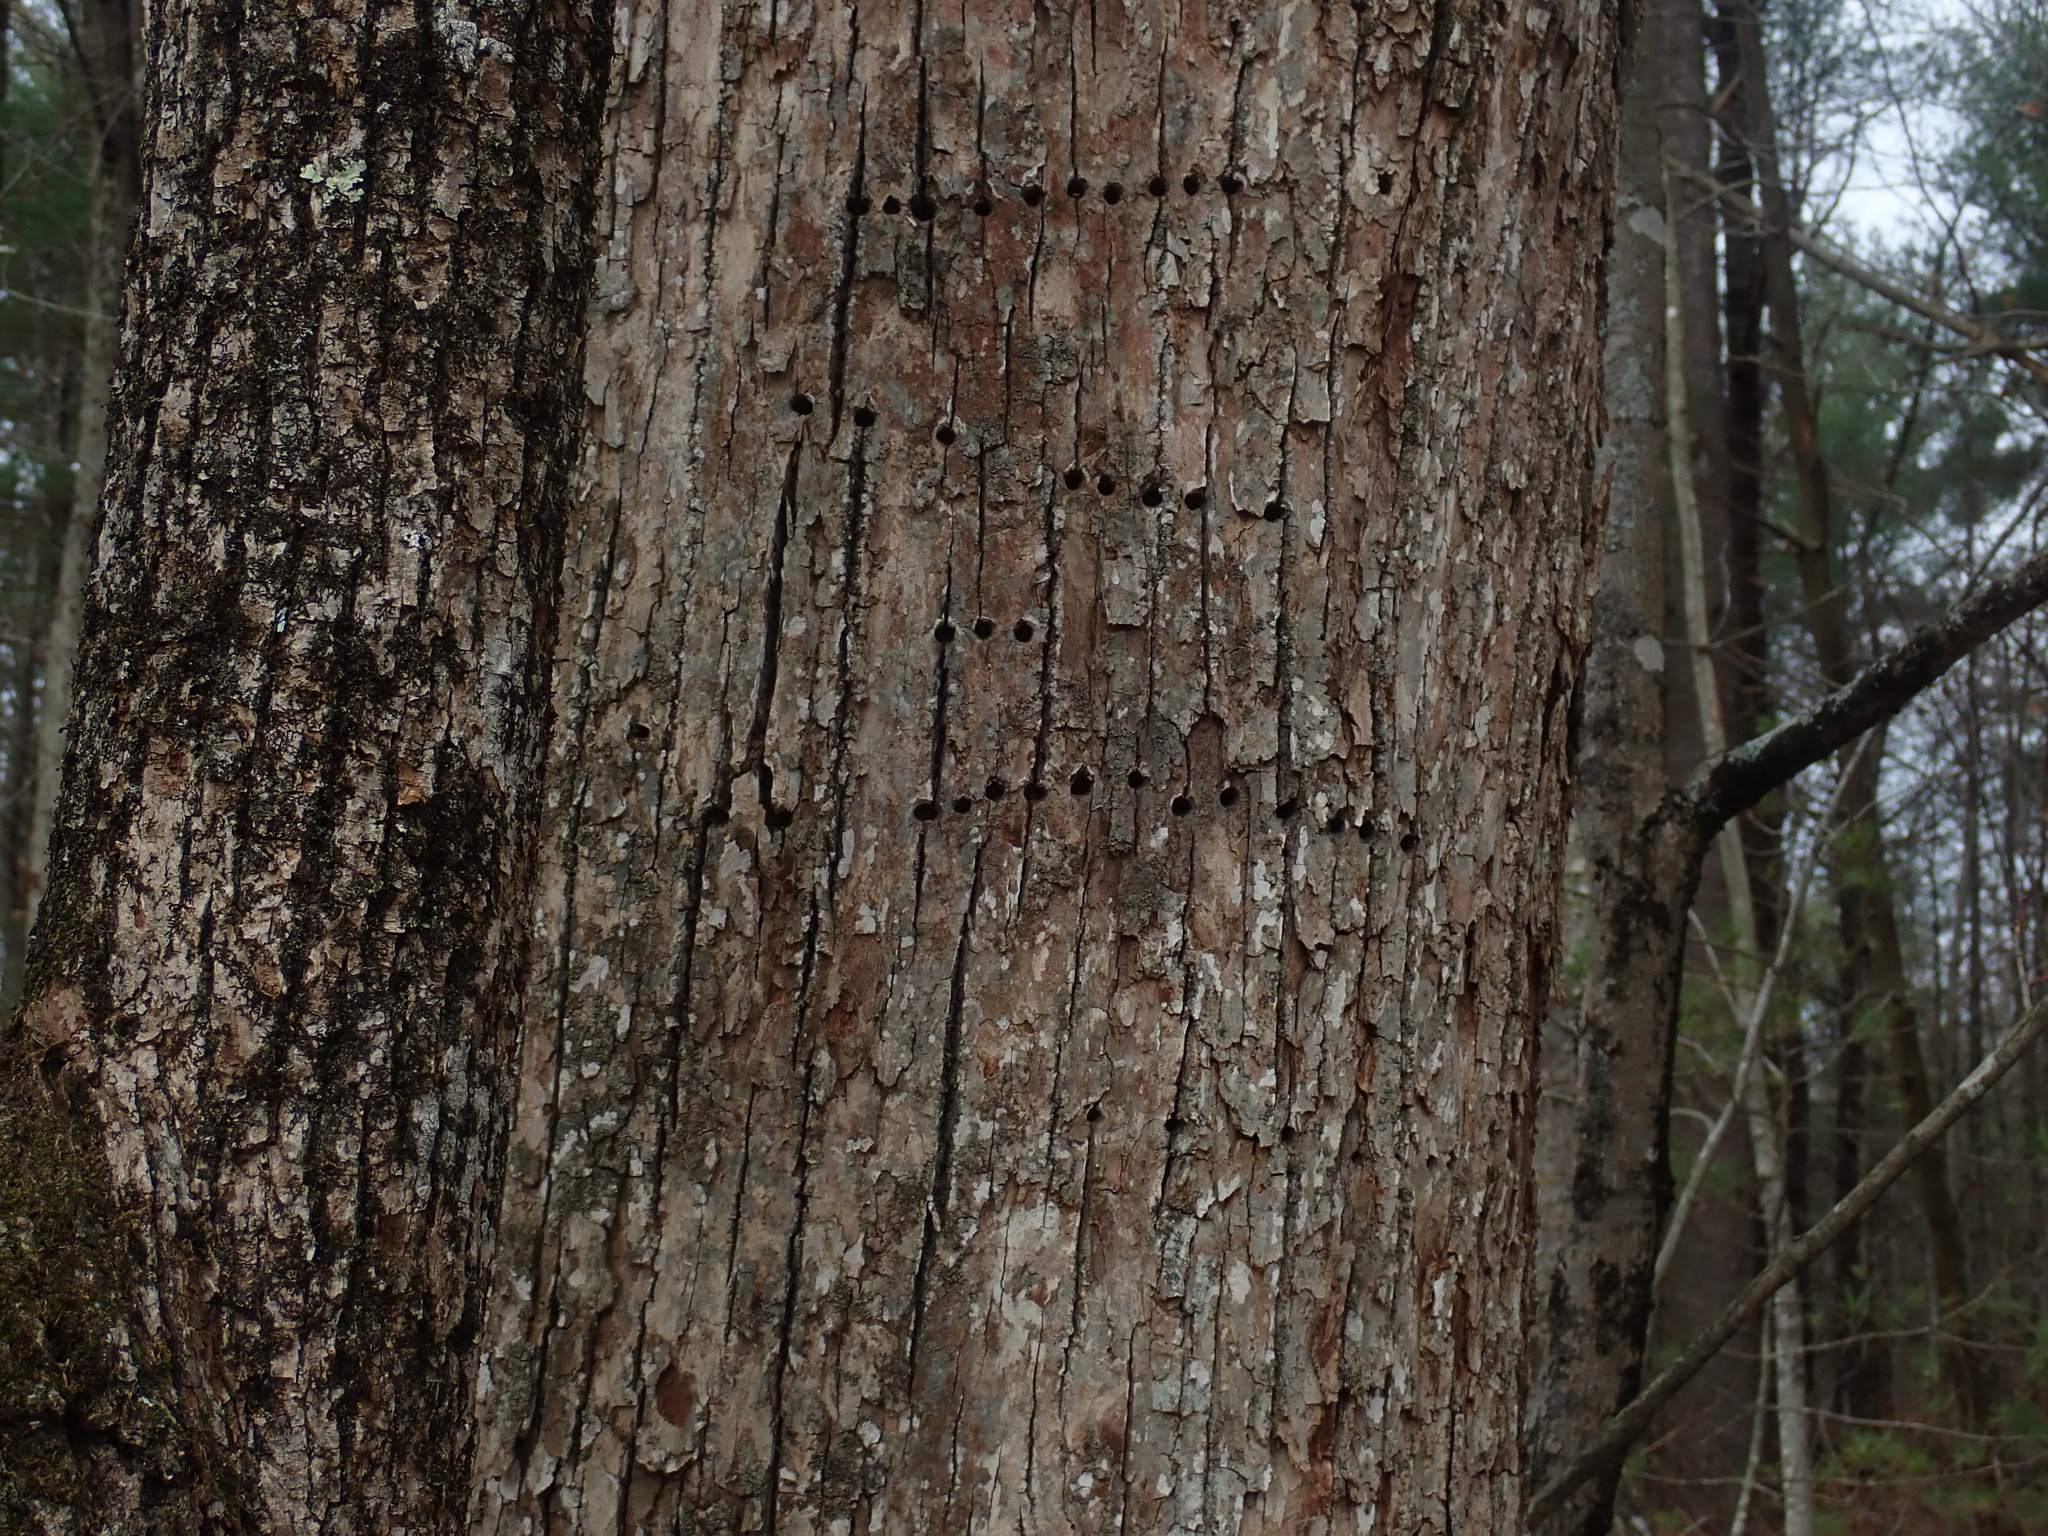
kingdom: Animalia
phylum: Chordata
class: Aves
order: Piciformes
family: Picidae
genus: Sphyrapicus
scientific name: Sphyrapicus varius
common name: Yellow-bellied sapsucker
